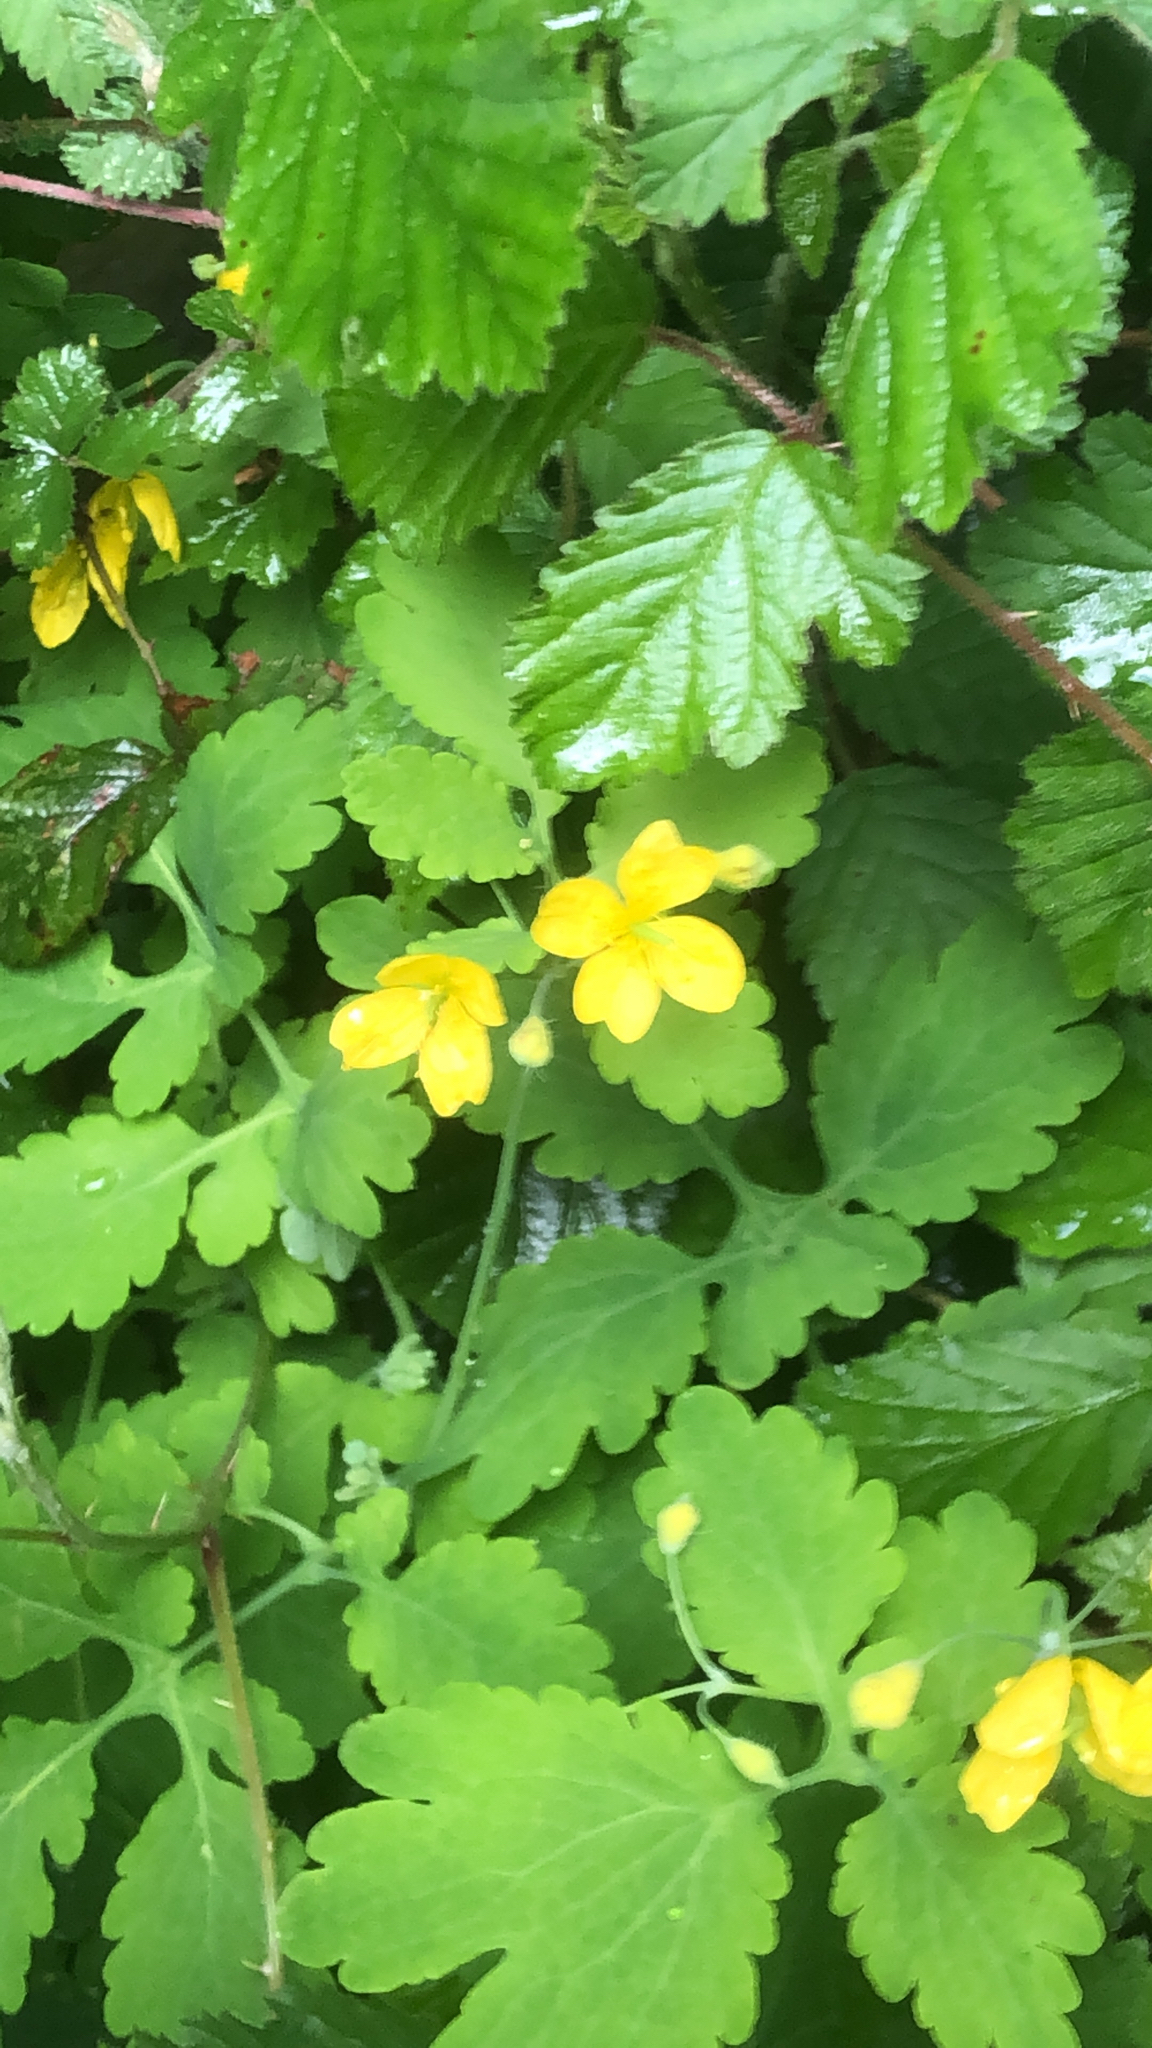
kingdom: Plantae
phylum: Tracheophyta
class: Magnoliopsida
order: Ranunculales
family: Papaveraceae
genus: Chelidonium
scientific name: Chelidonium majus
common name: Greater celandine
